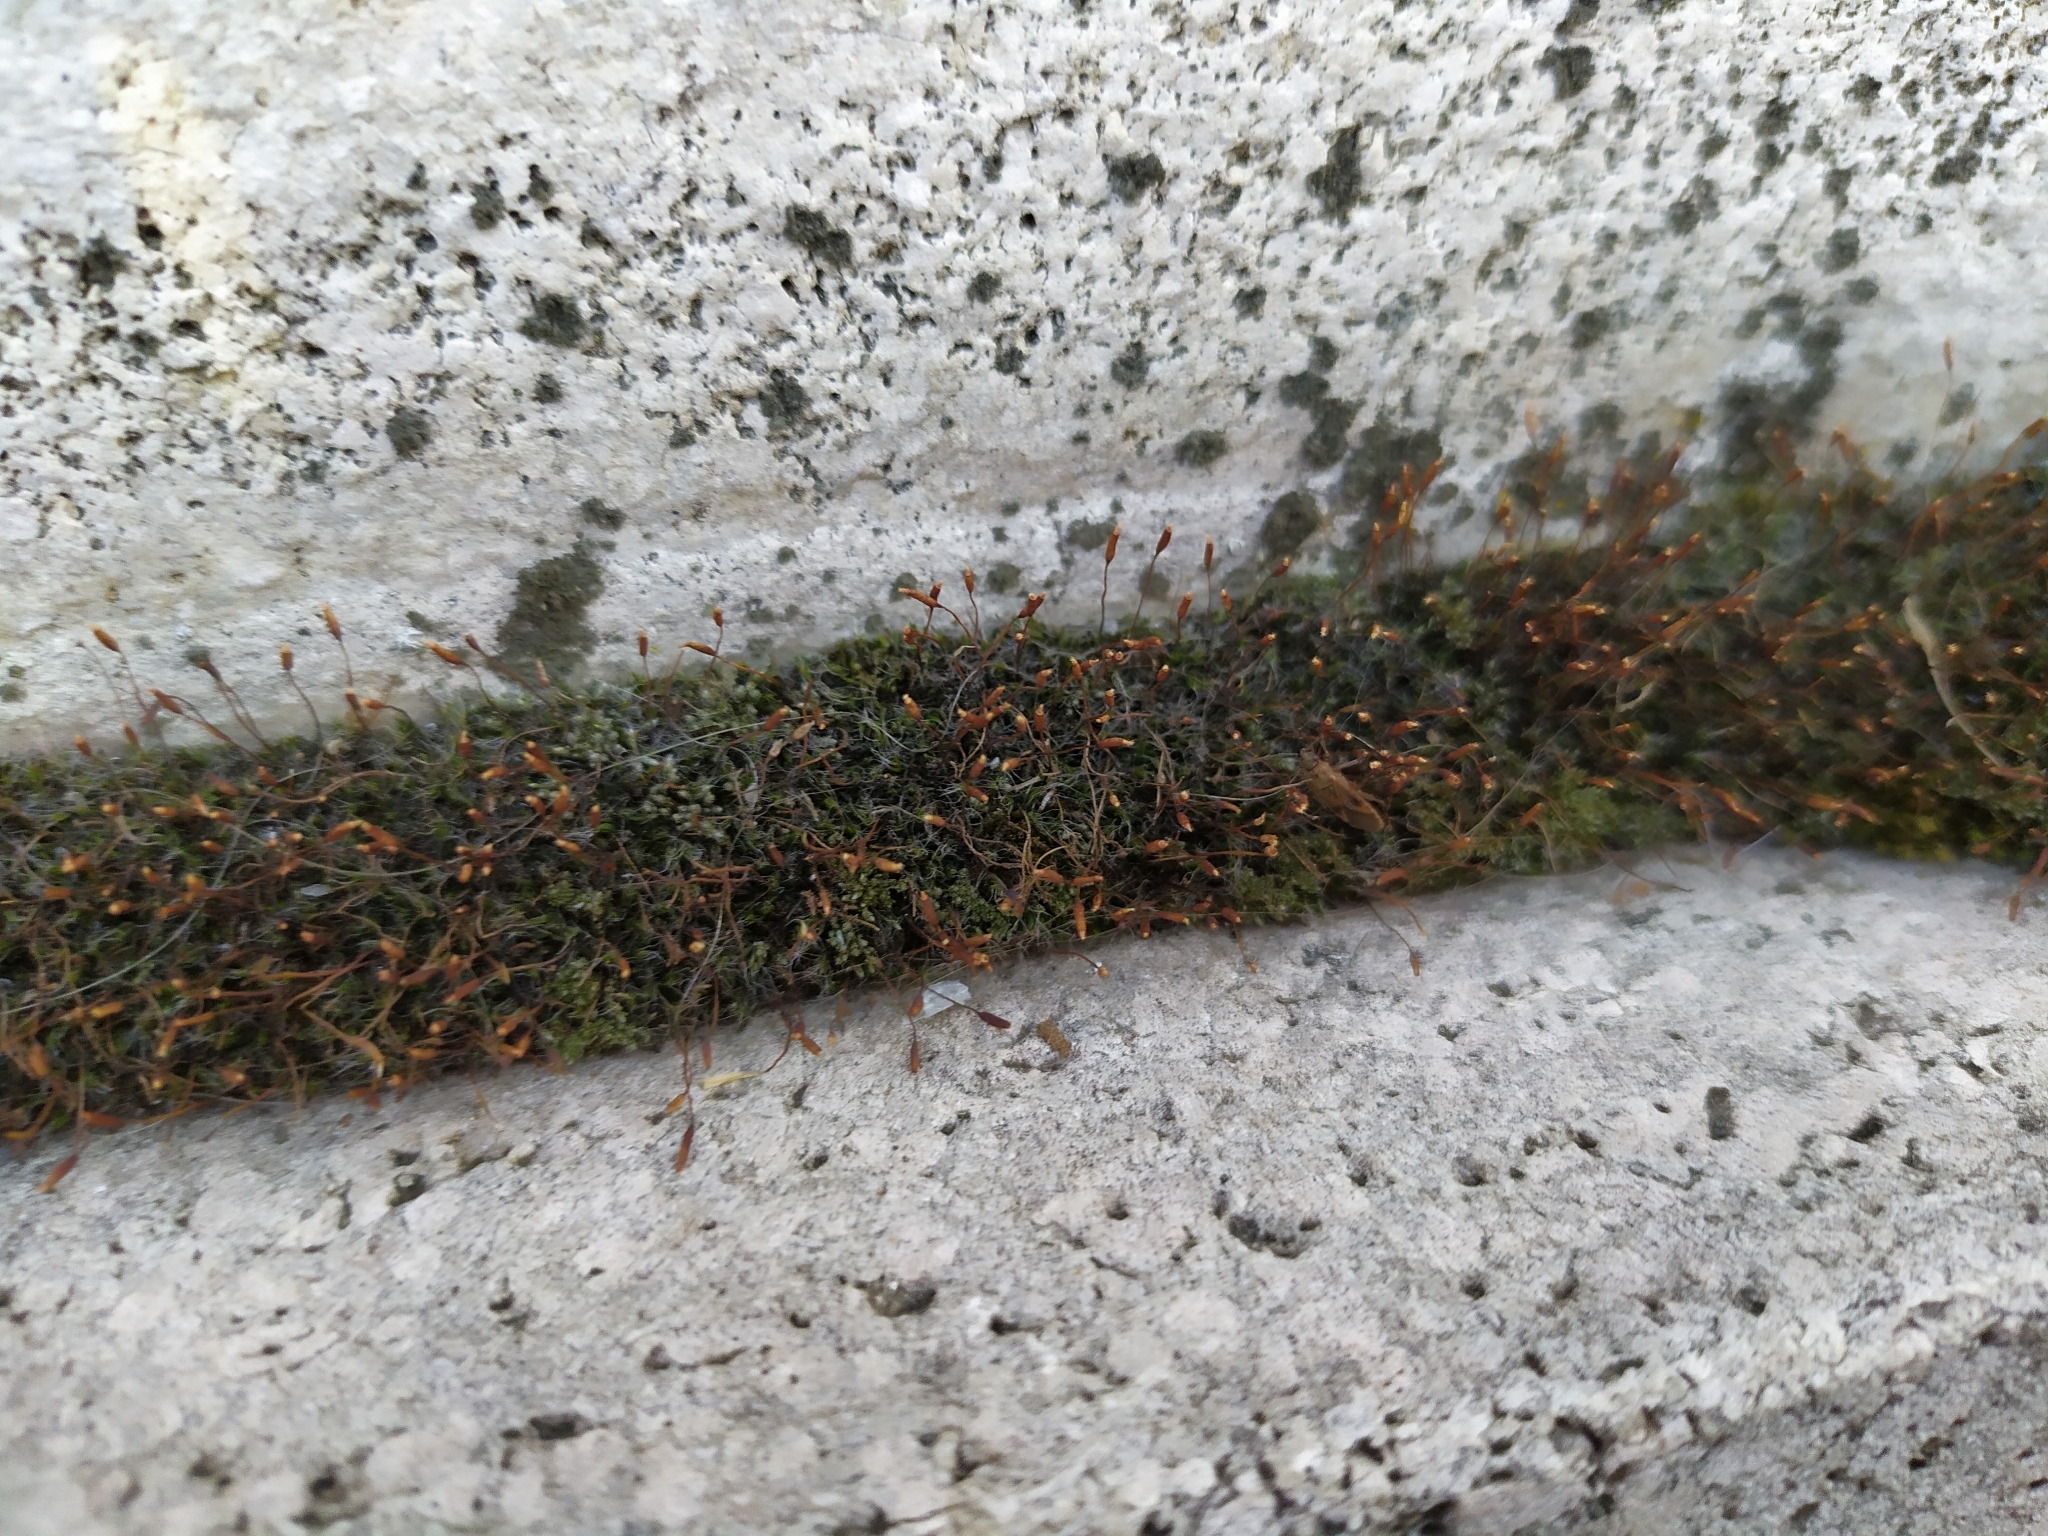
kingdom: Plantae
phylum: Bryophyta
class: Bryopsida
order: Pottiales
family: Pottiaceae
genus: Tortula
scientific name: Tortula muralis
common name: Wall screw-moss
